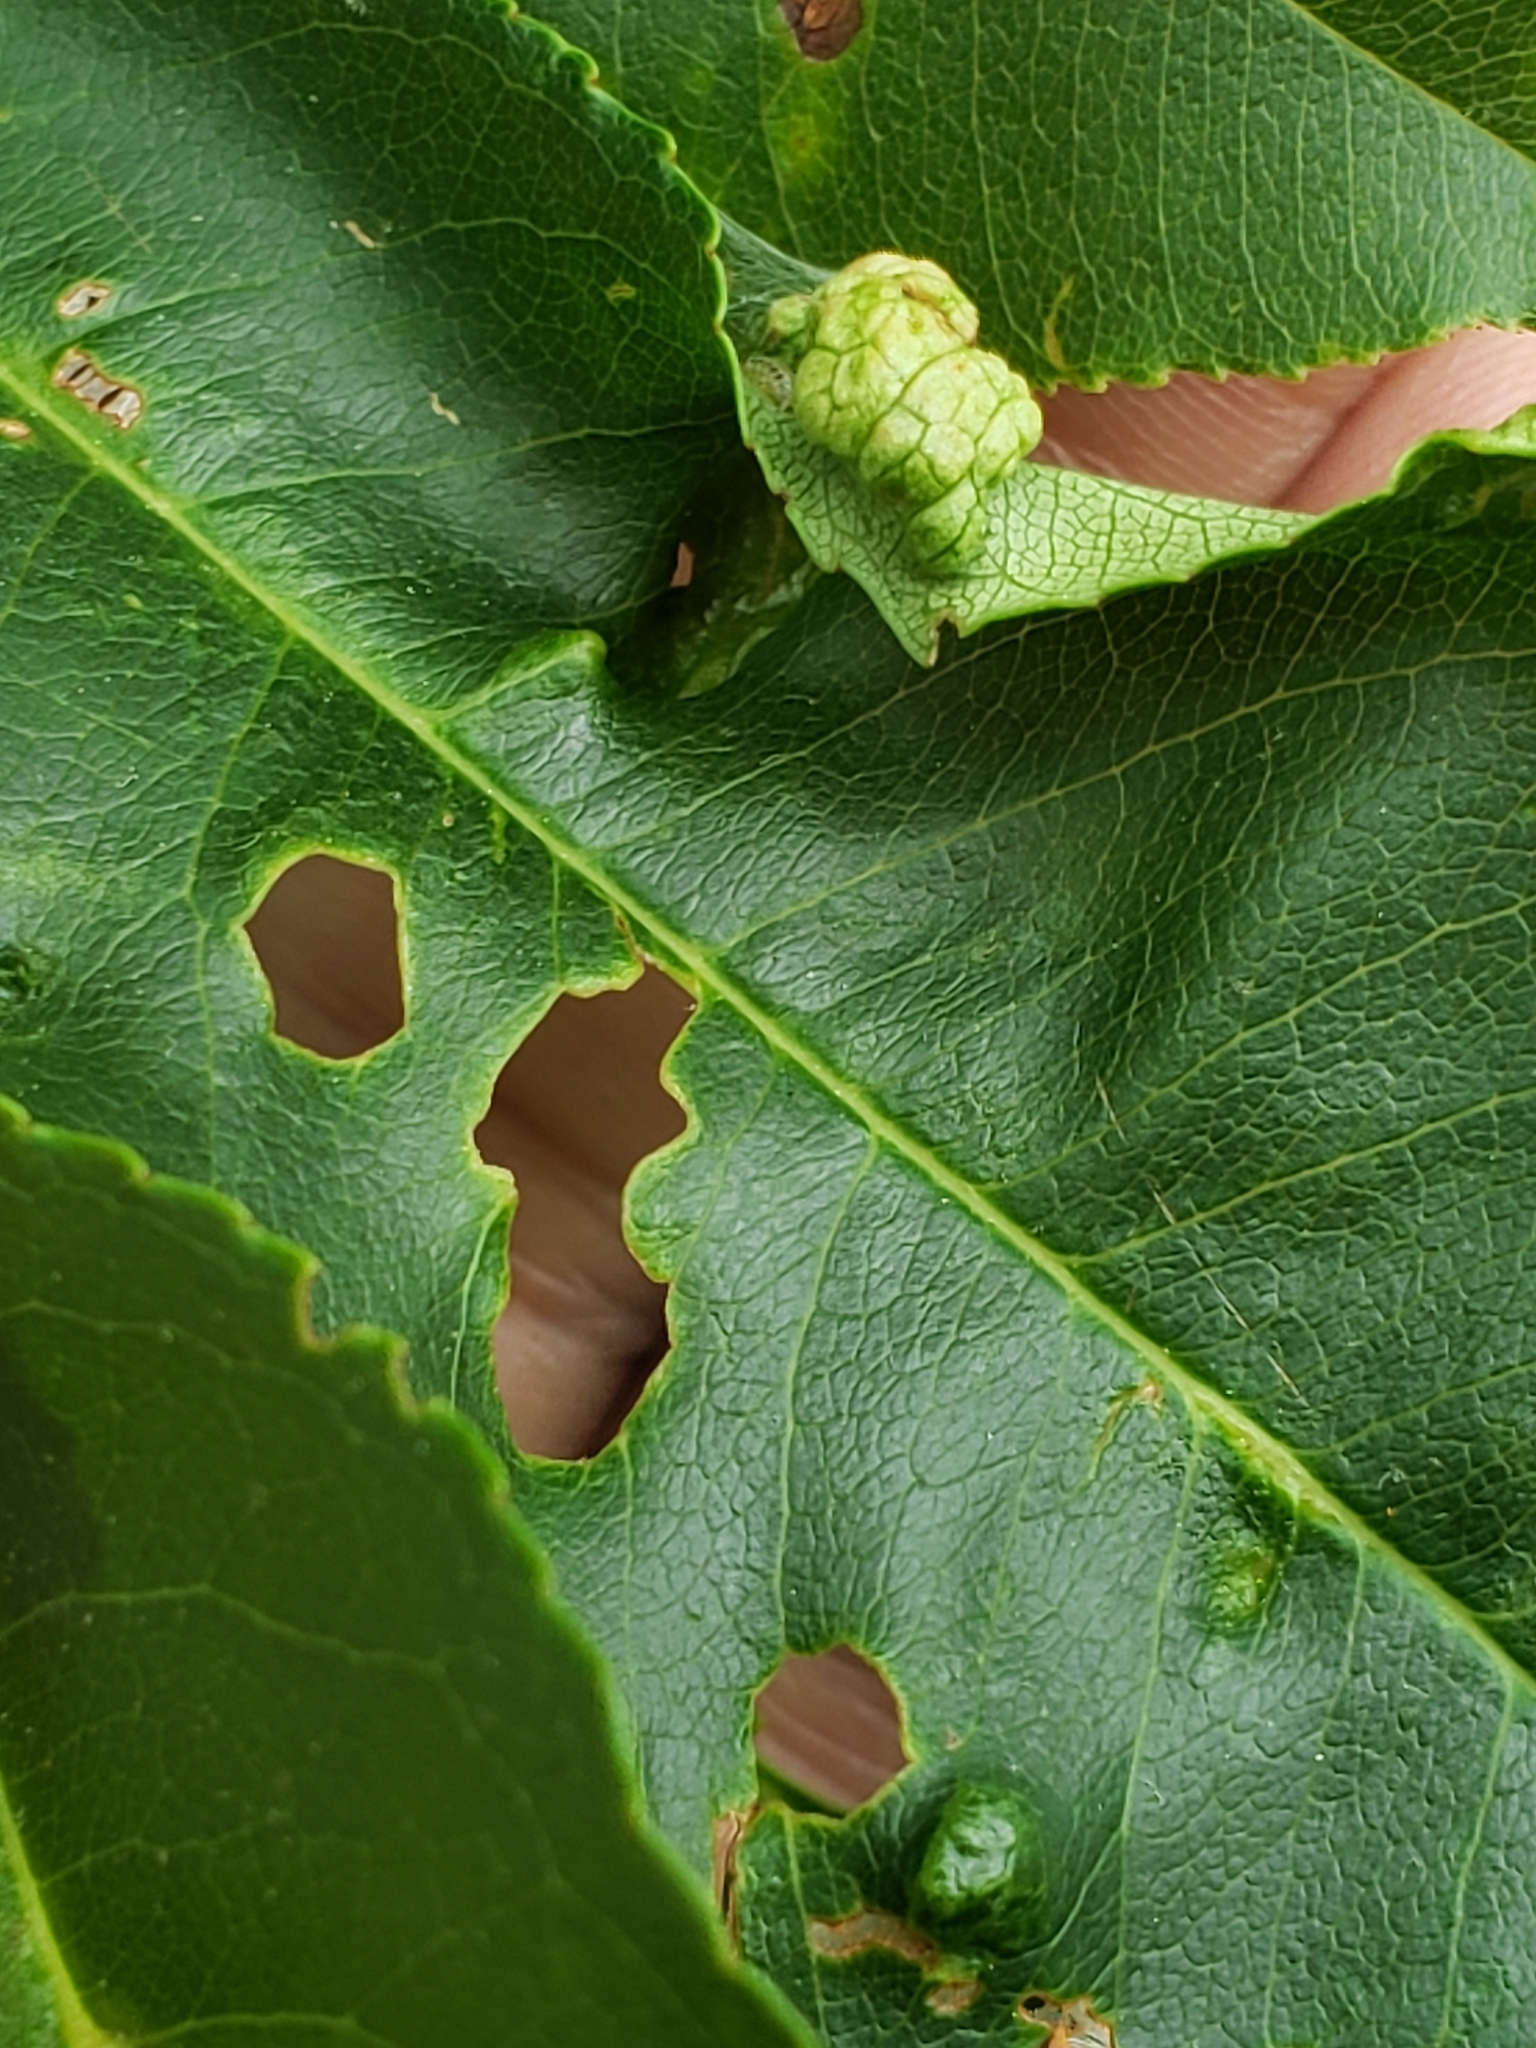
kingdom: Fungi
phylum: Ascomycota
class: Taphrinomycetes
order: Taphrinales
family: Taphrinaceae
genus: Taphrina
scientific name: Taphrina farlowii
